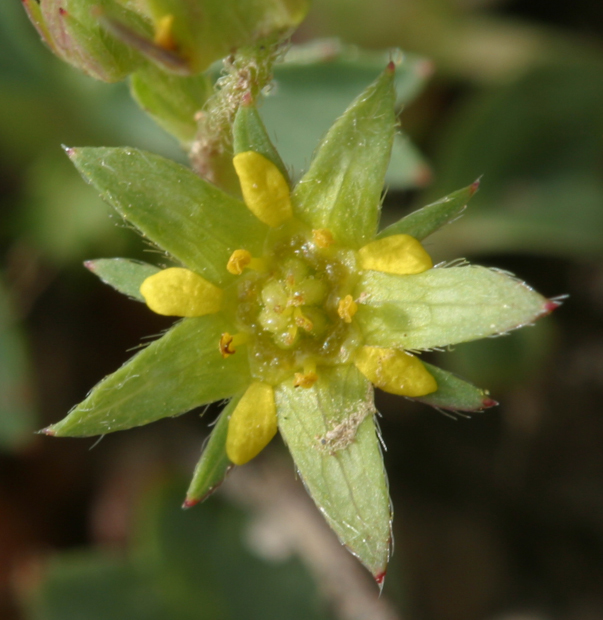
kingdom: Plantae
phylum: Tracheophyta
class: Magnoliopsida
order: Rosales
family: Rosaceae
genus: Sibbaldia
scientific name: Sibbaldia procumbens
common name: Creeping sibbaldia
